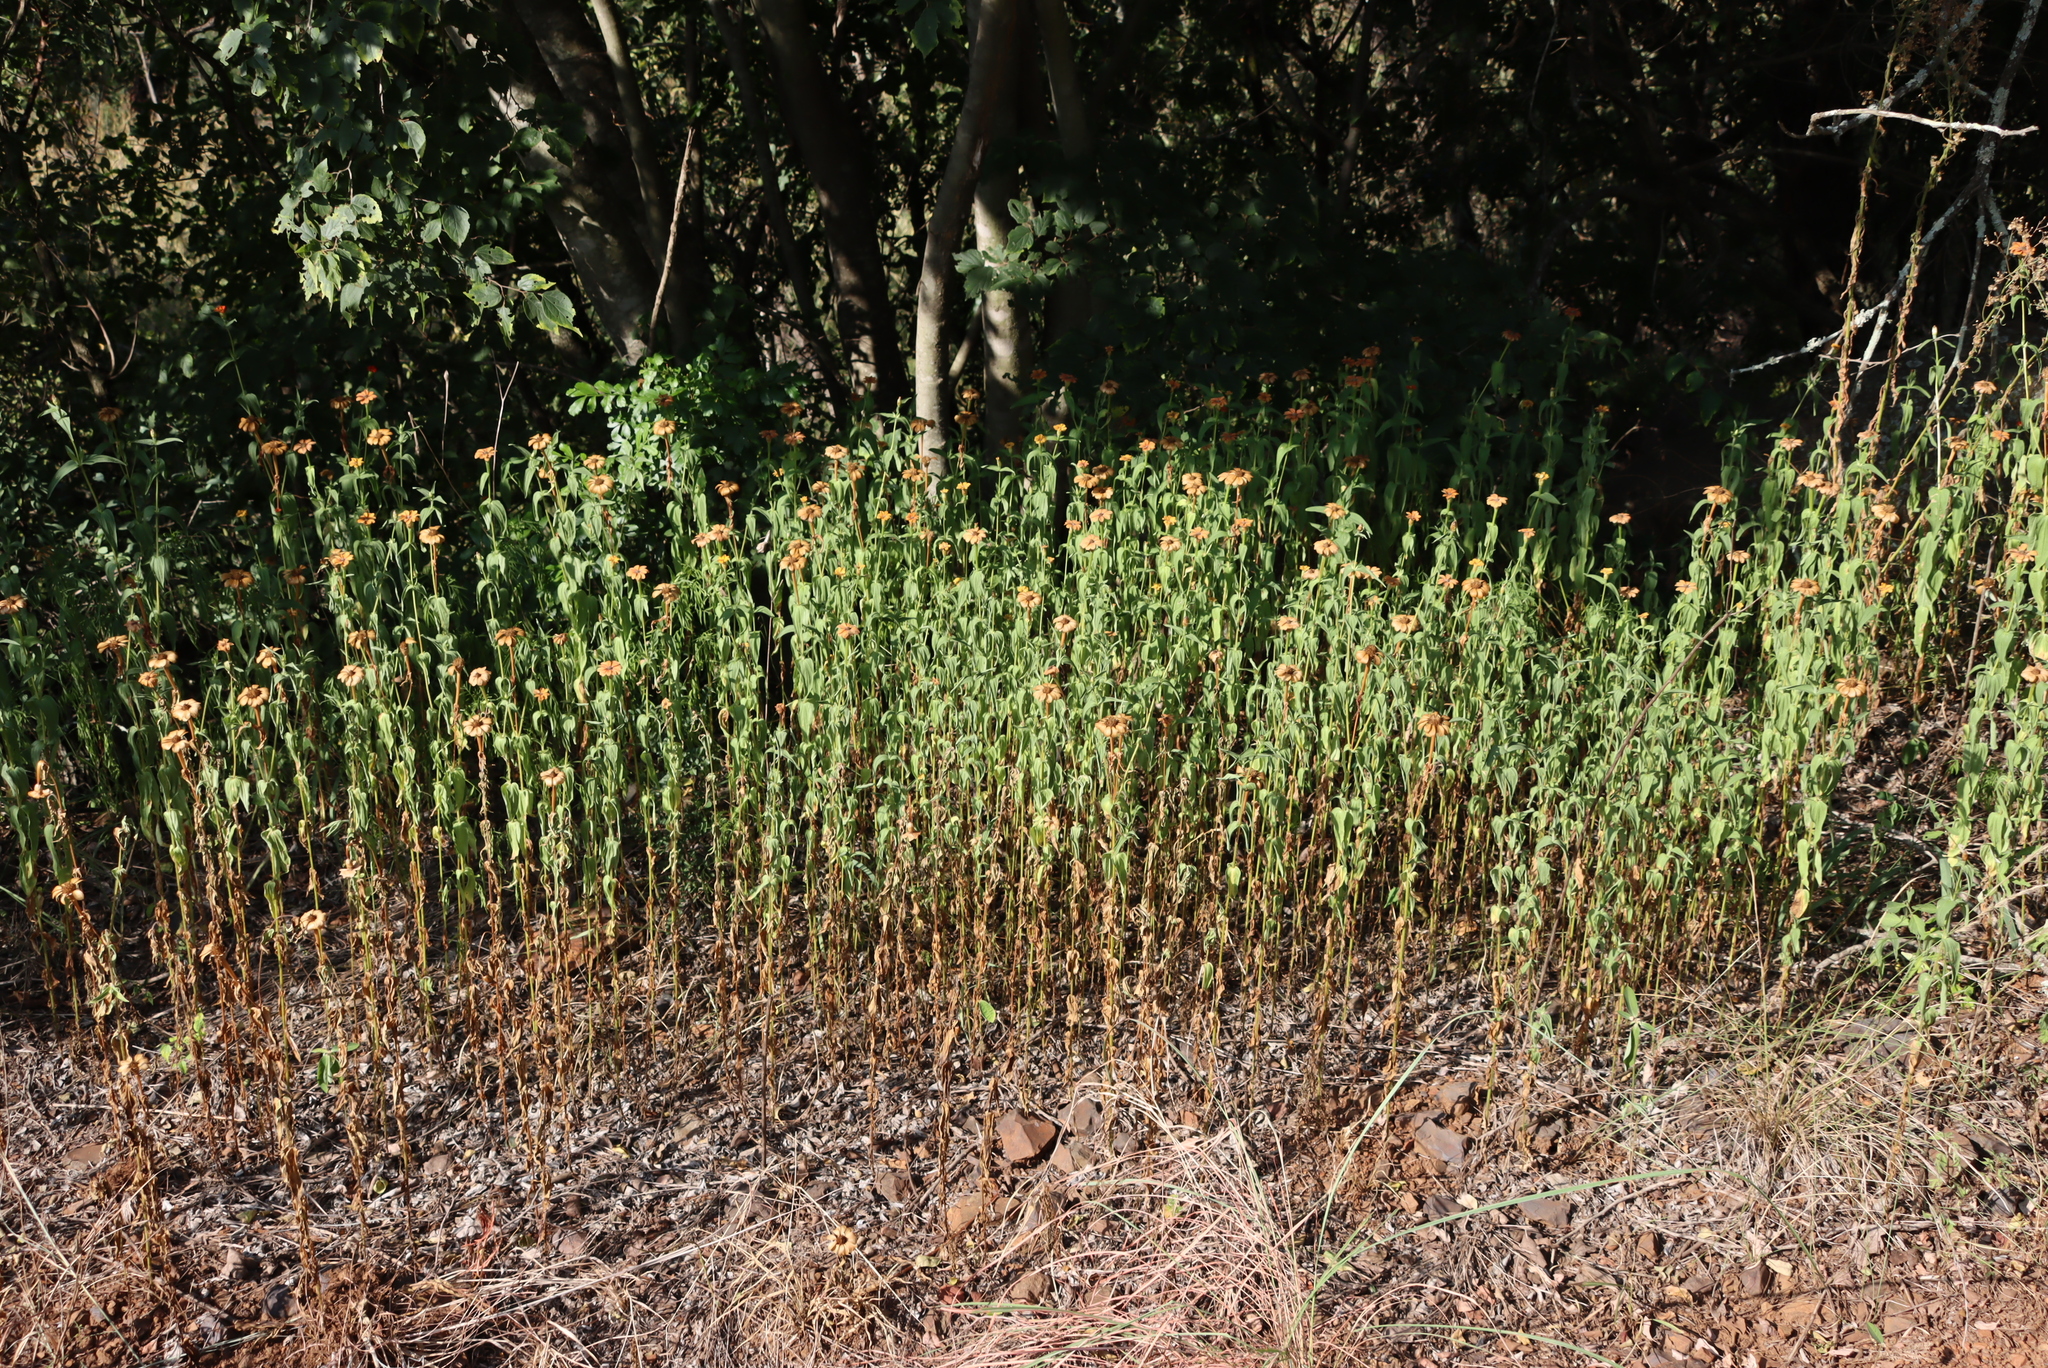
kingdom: Plantae
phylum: Tracheophyta
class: Magnoliopsida
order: Asterales
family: Asteraceae
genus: Zinnia
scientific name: Zinnia peruviana
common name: Peruvian zinnia
